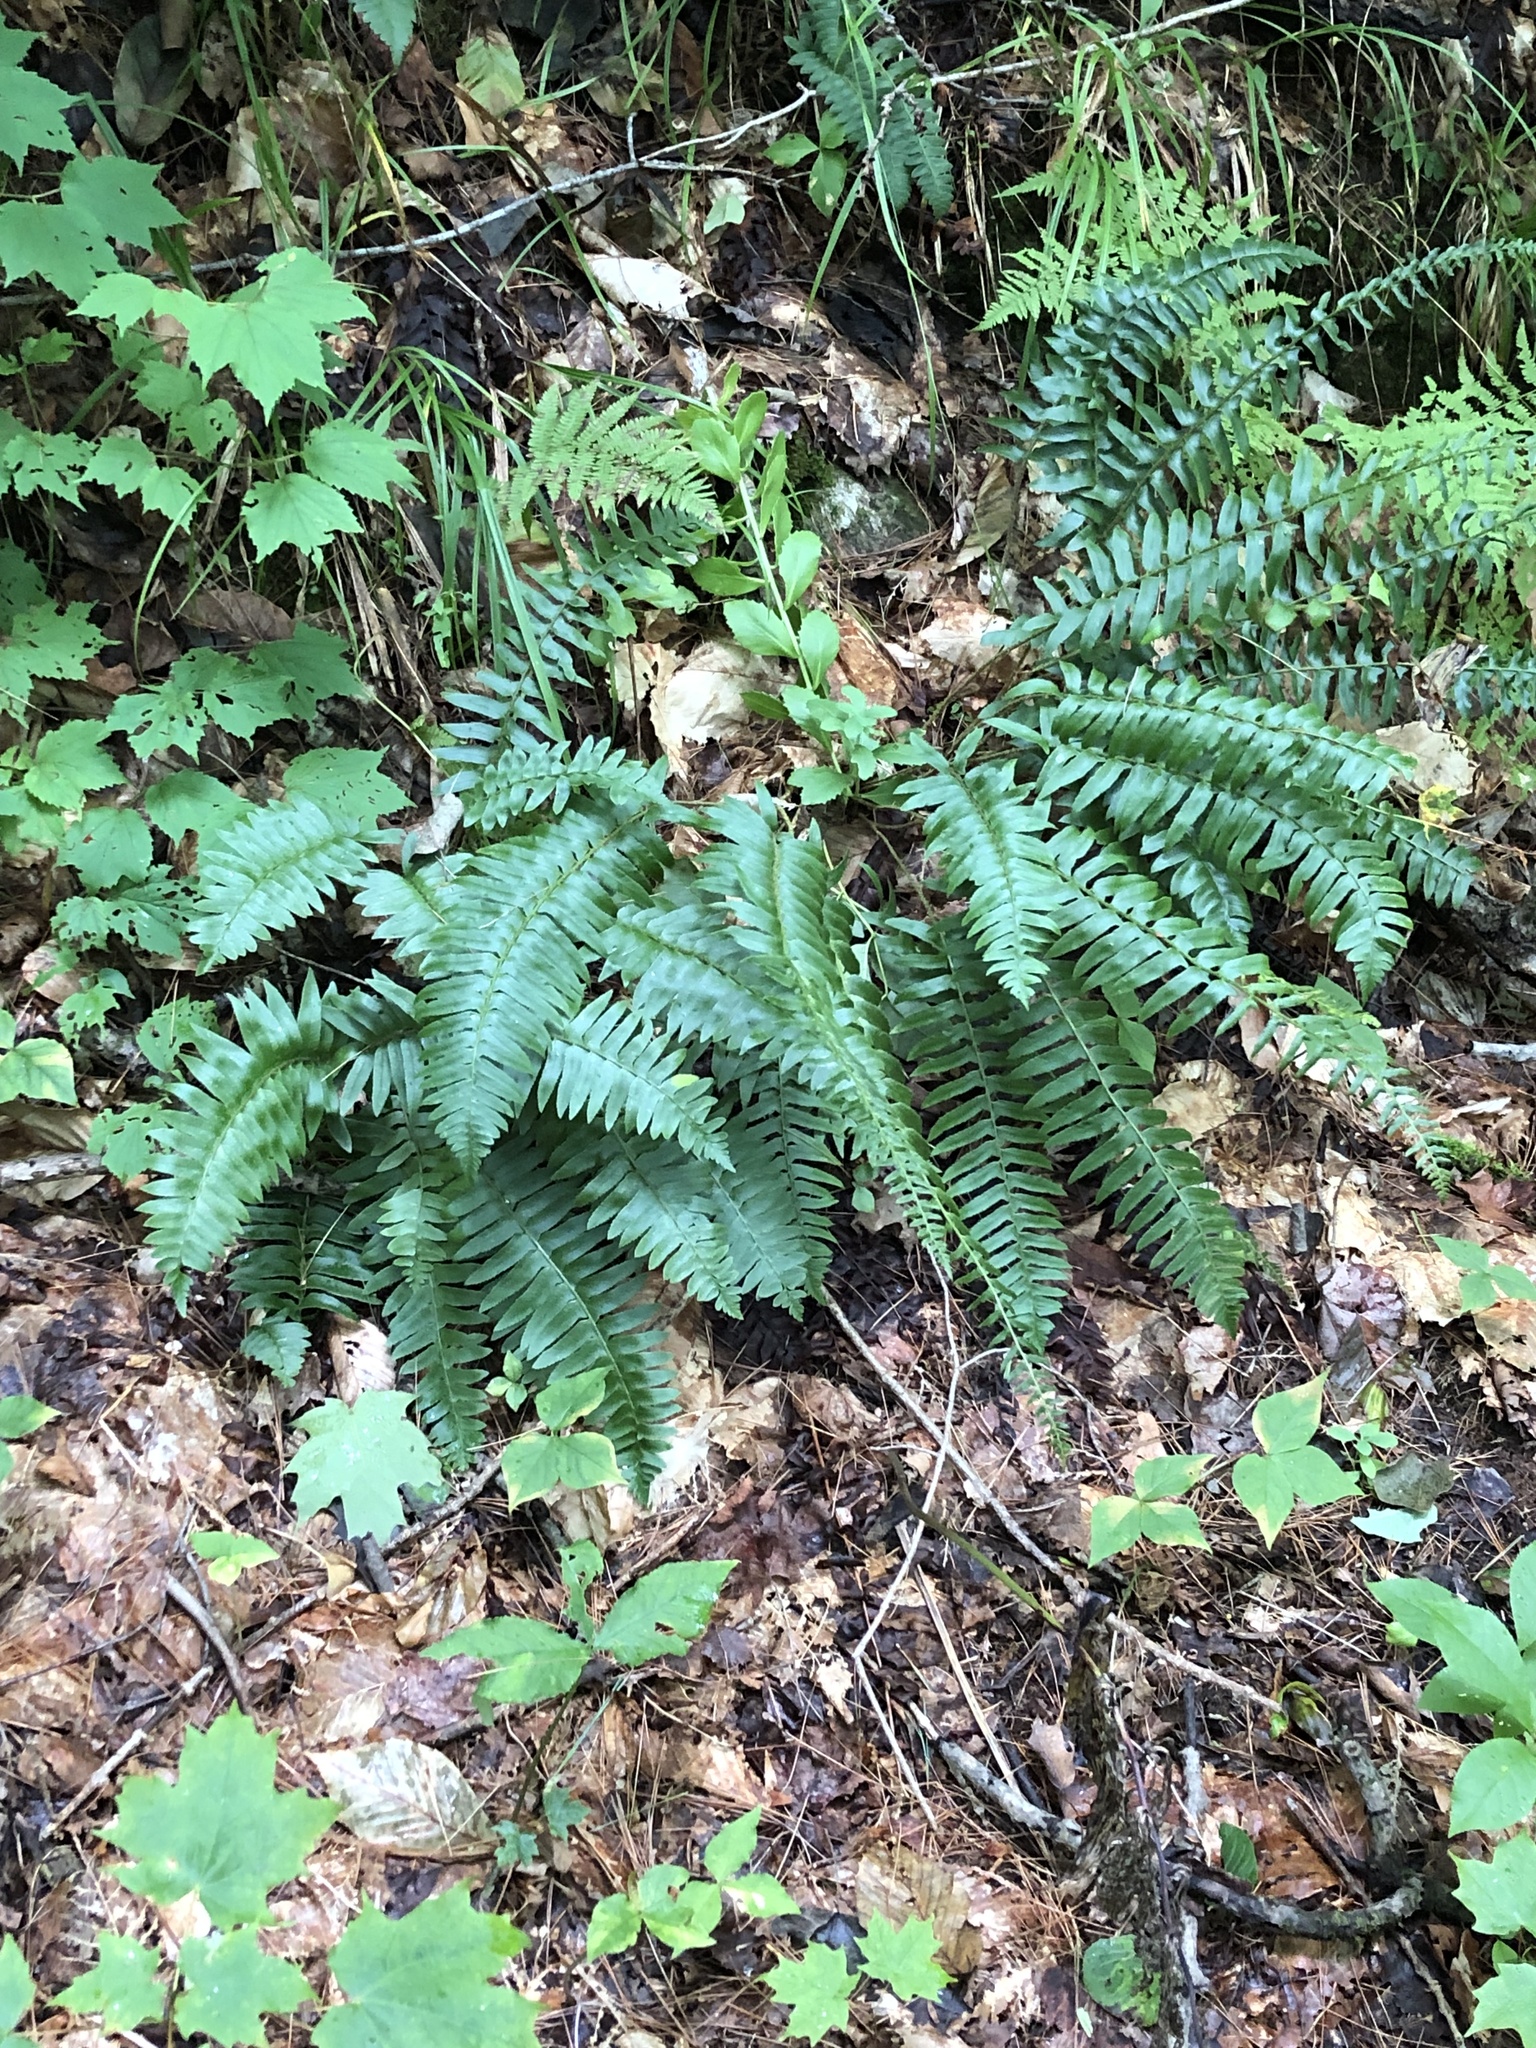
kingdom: Plantae
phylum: Tracheophyta
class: Polypodiopsida
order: Polypodiales
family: Dryopteridaceae
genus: Polystichum
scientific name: Polystichum acrostichoides
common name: Christmas fern
